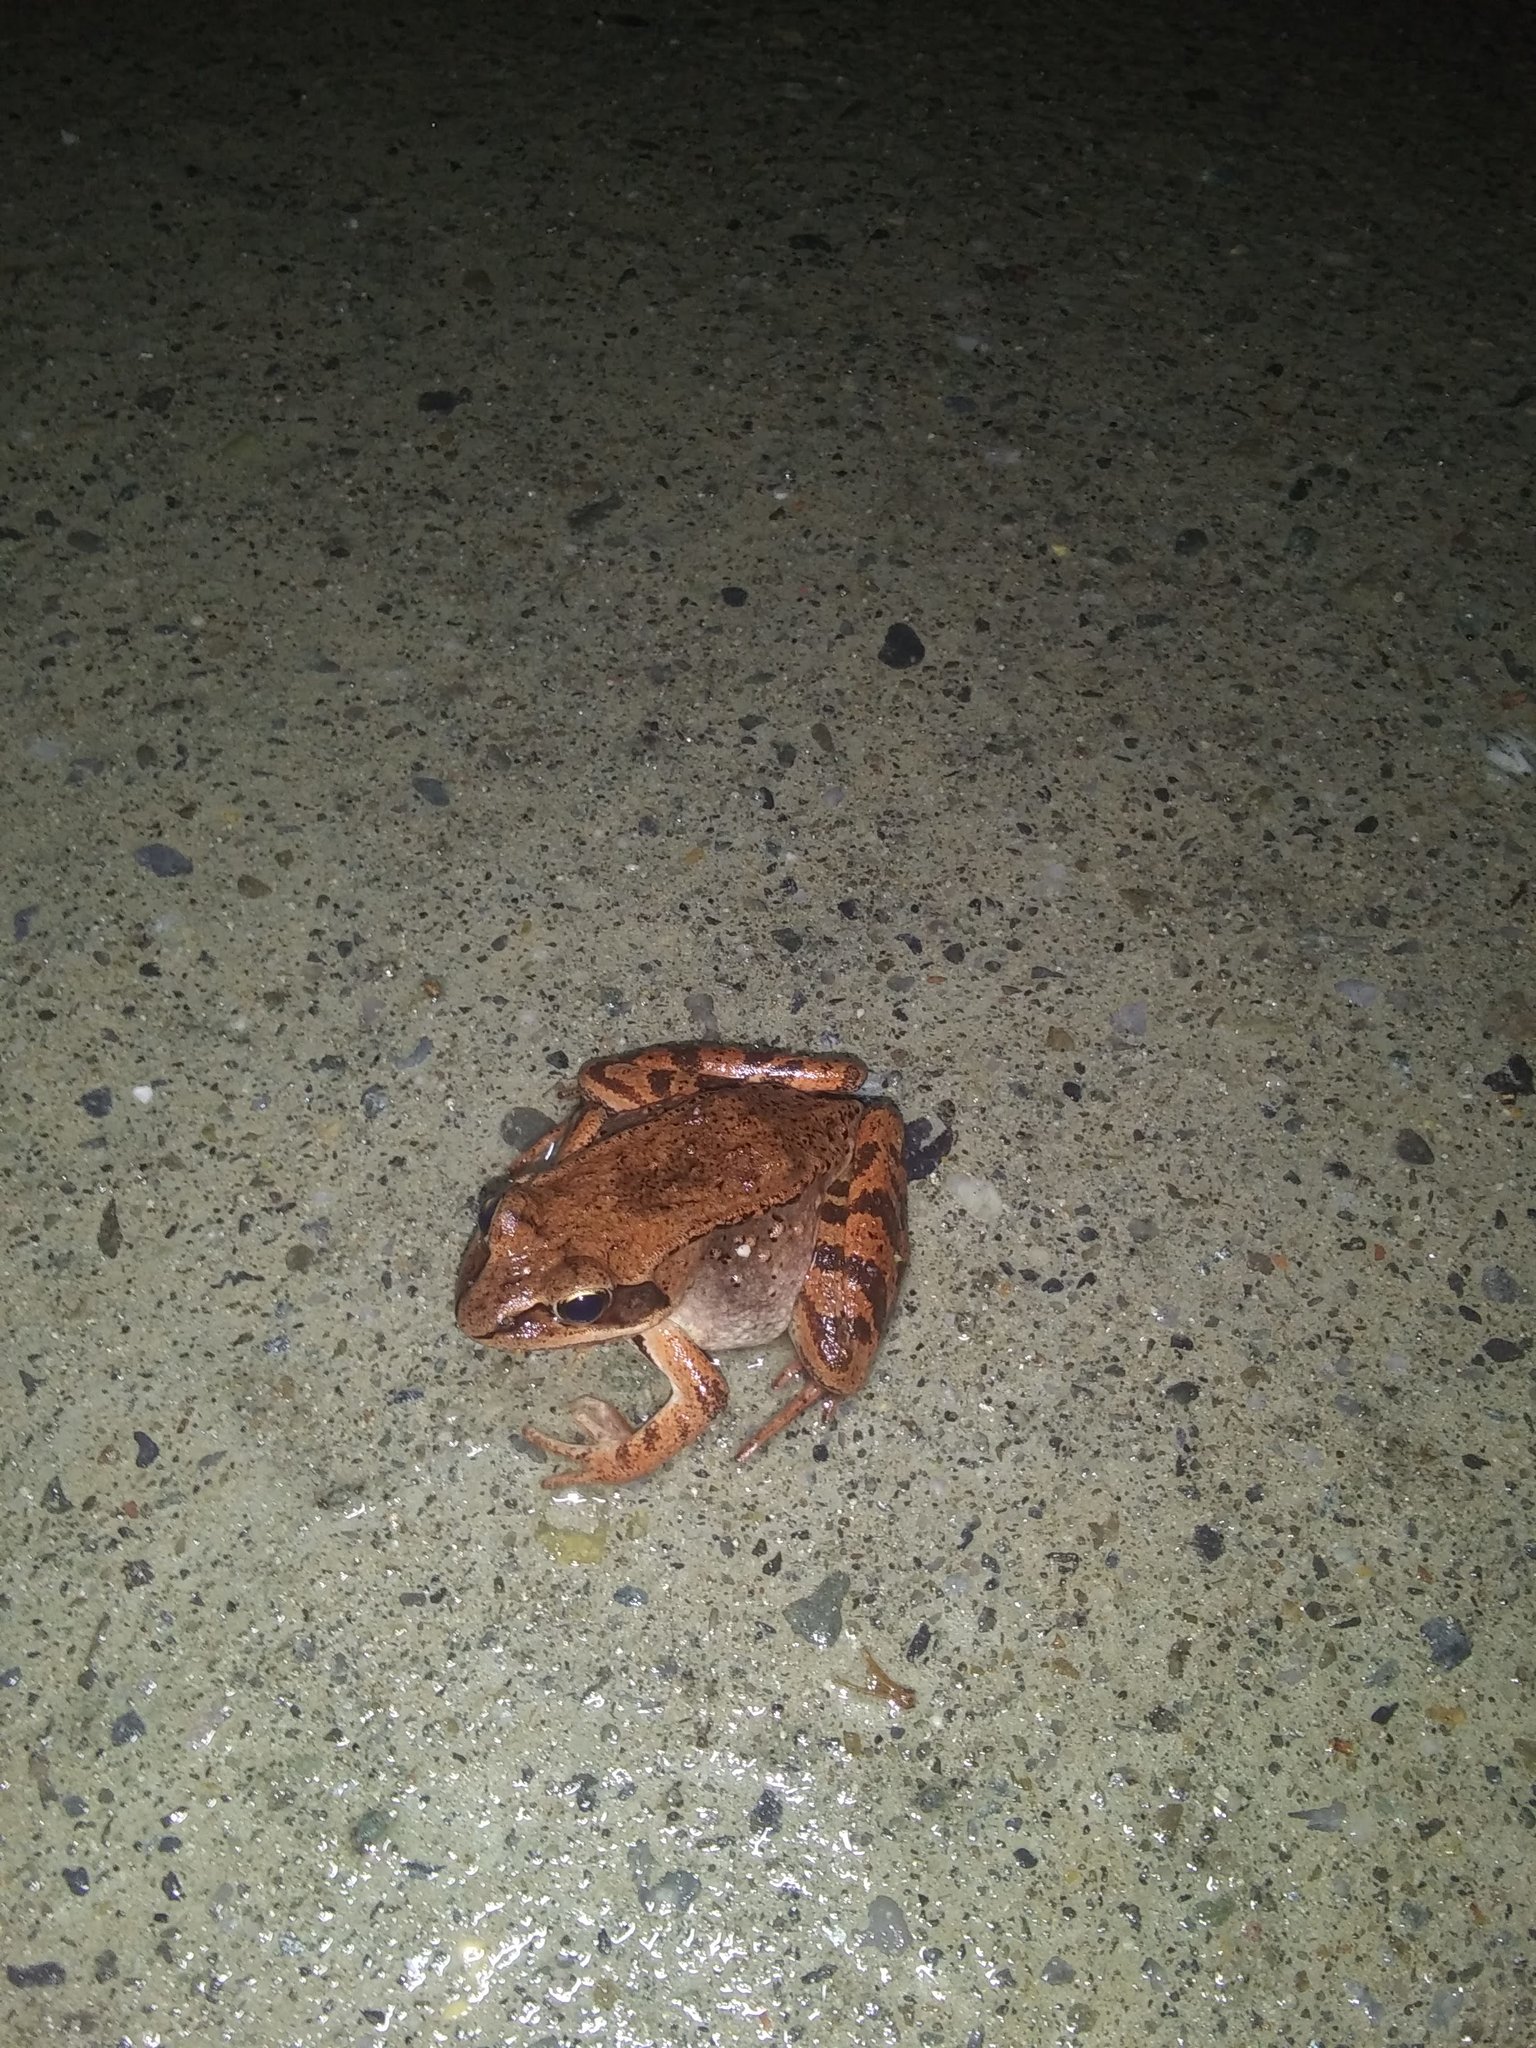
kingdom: Animalia
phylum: Chordata
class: Amphibia
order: Anura
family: Ranidae
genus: Lithobates
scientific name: Lithobates sylvaticus
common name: Wood frog
